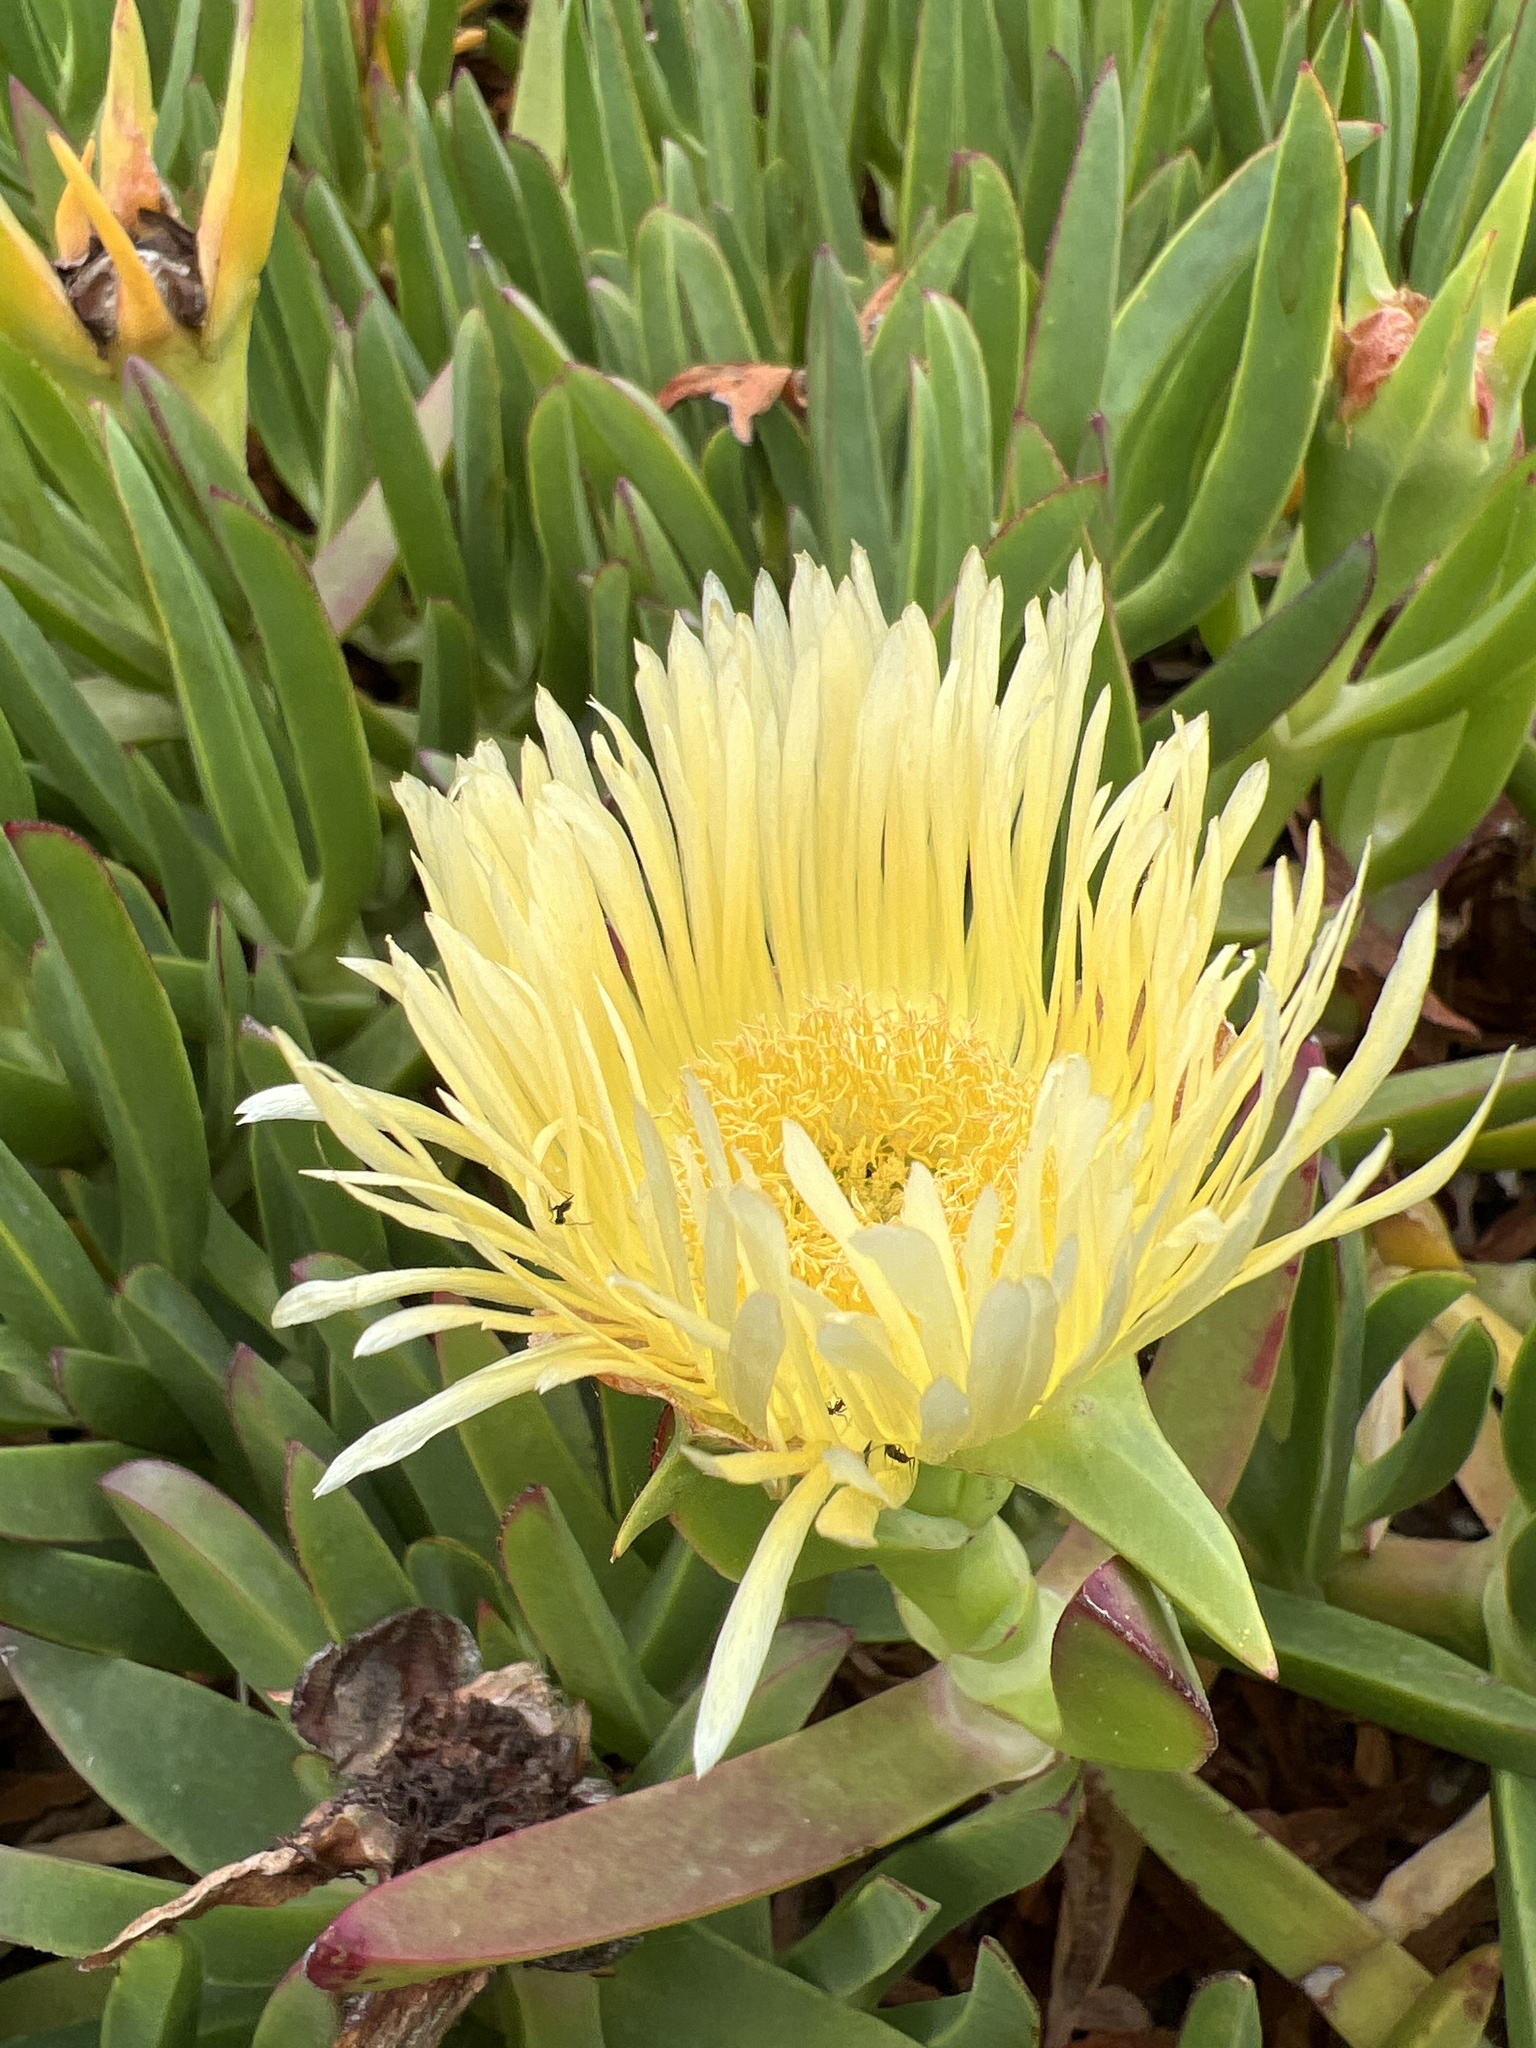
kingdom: Plantae
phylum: Tracheophyta
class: Magnoliopsida
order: Caryophyllales
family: Aizoaceae
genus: Carpobrotus
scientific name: Carpobrotus edulis
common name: Hottentot-fig
